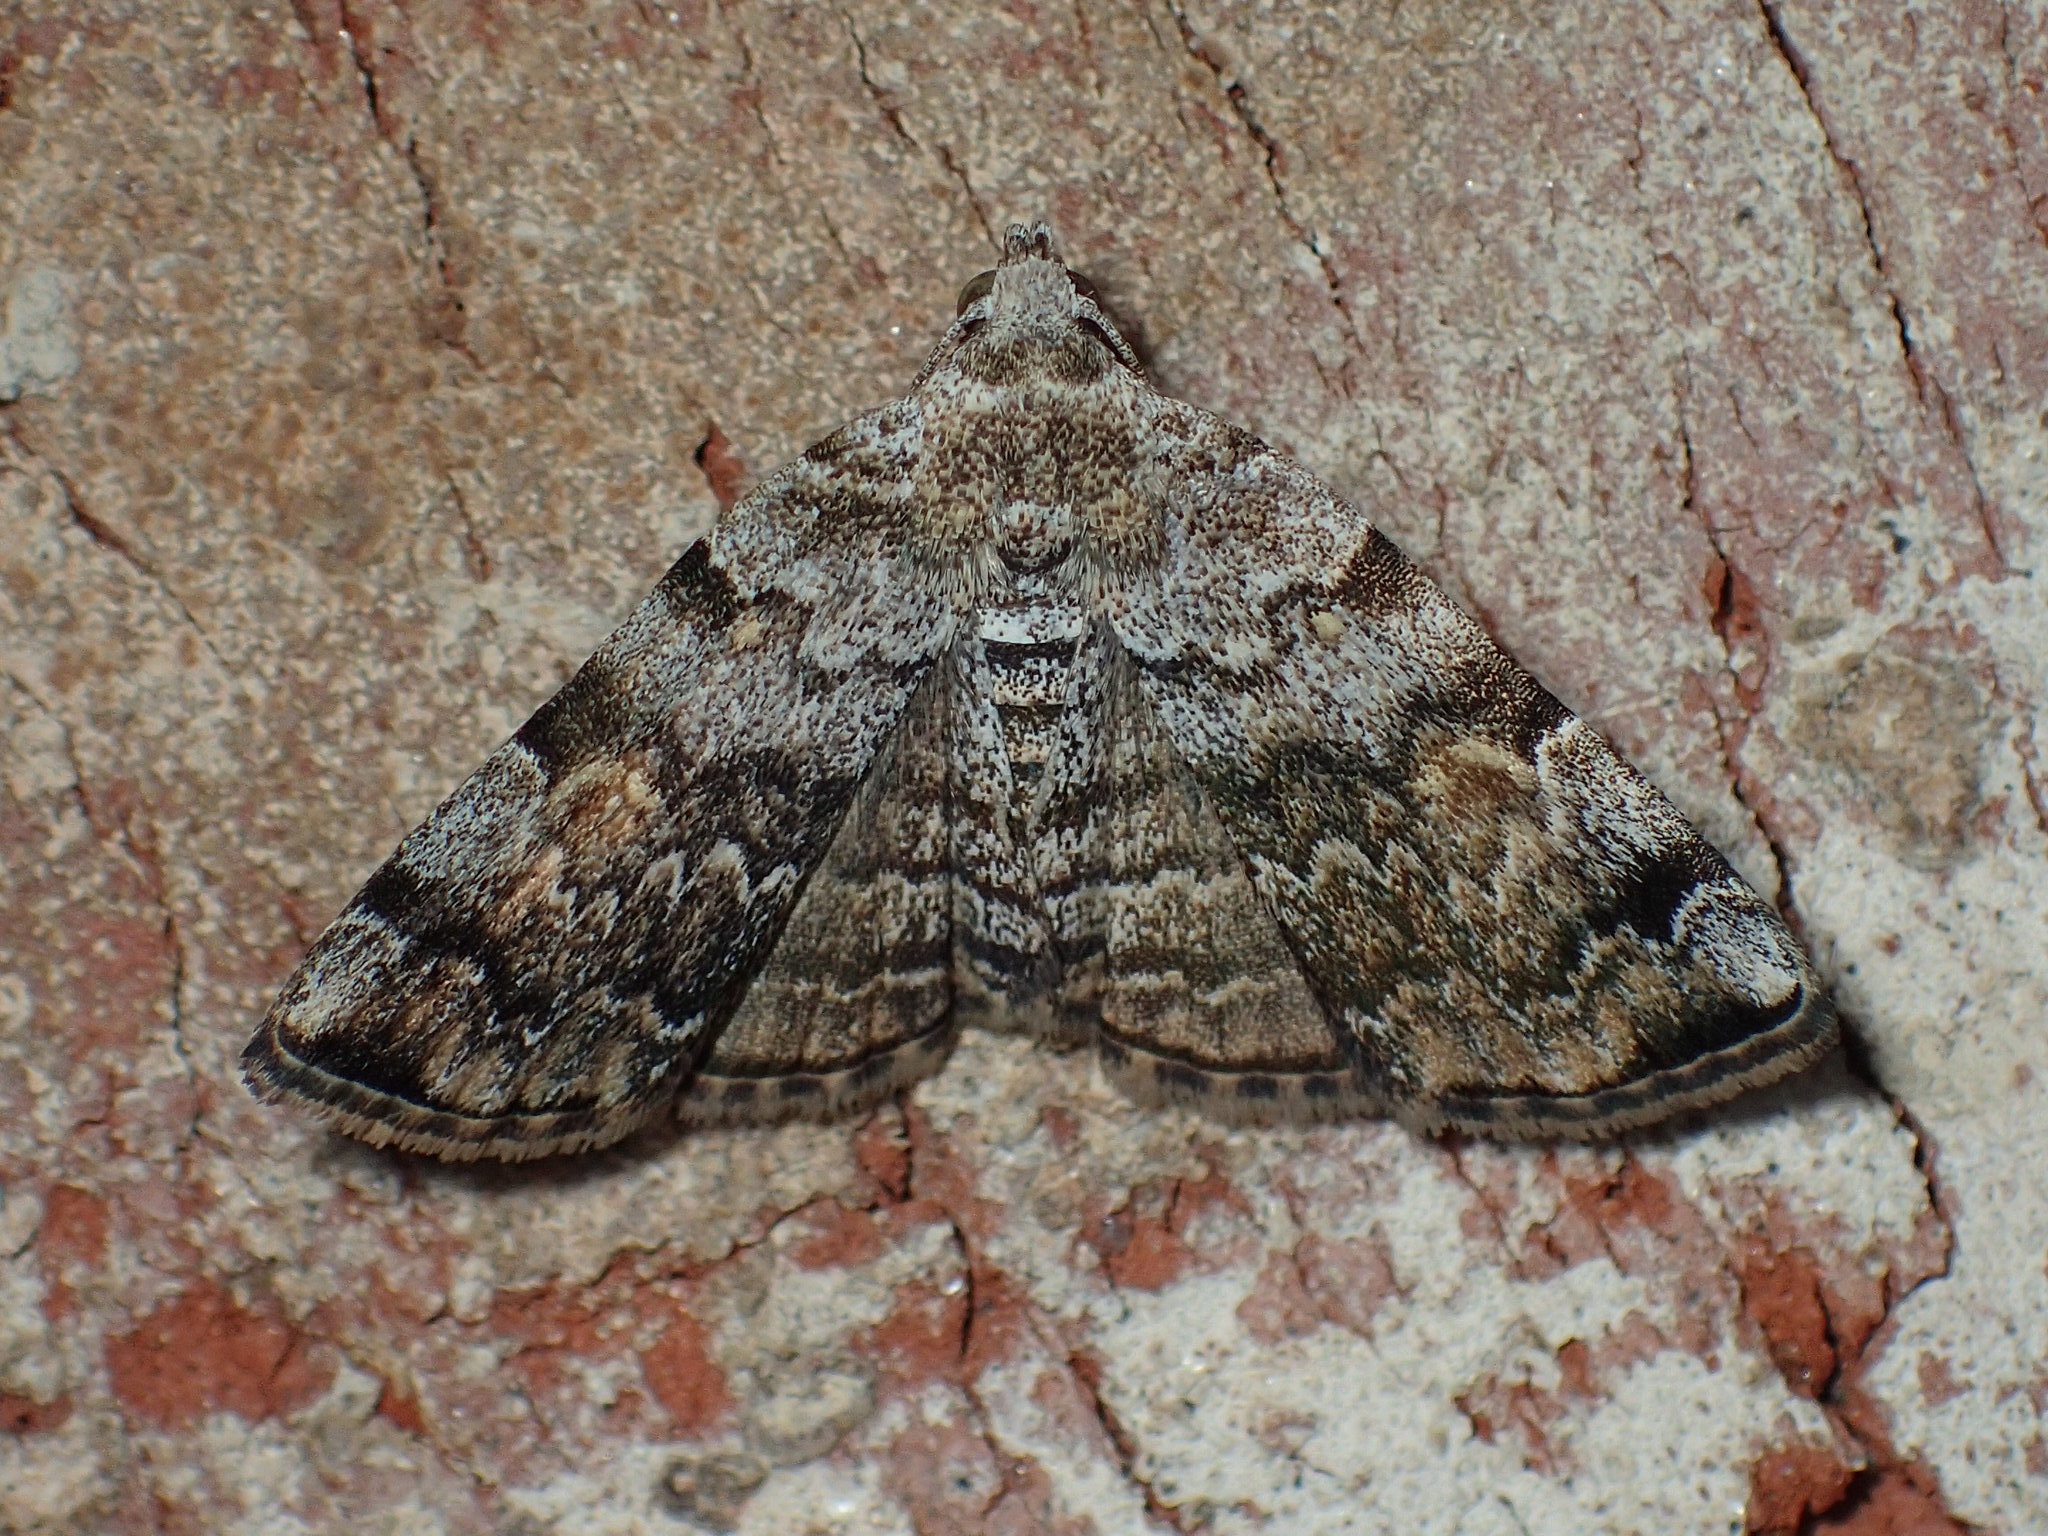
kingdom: Animalia
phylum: Arthropoda
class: Insecta
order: Lepidoptera
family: Erebidae
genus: Idia
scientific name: Idia americalis
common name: American idia moth
